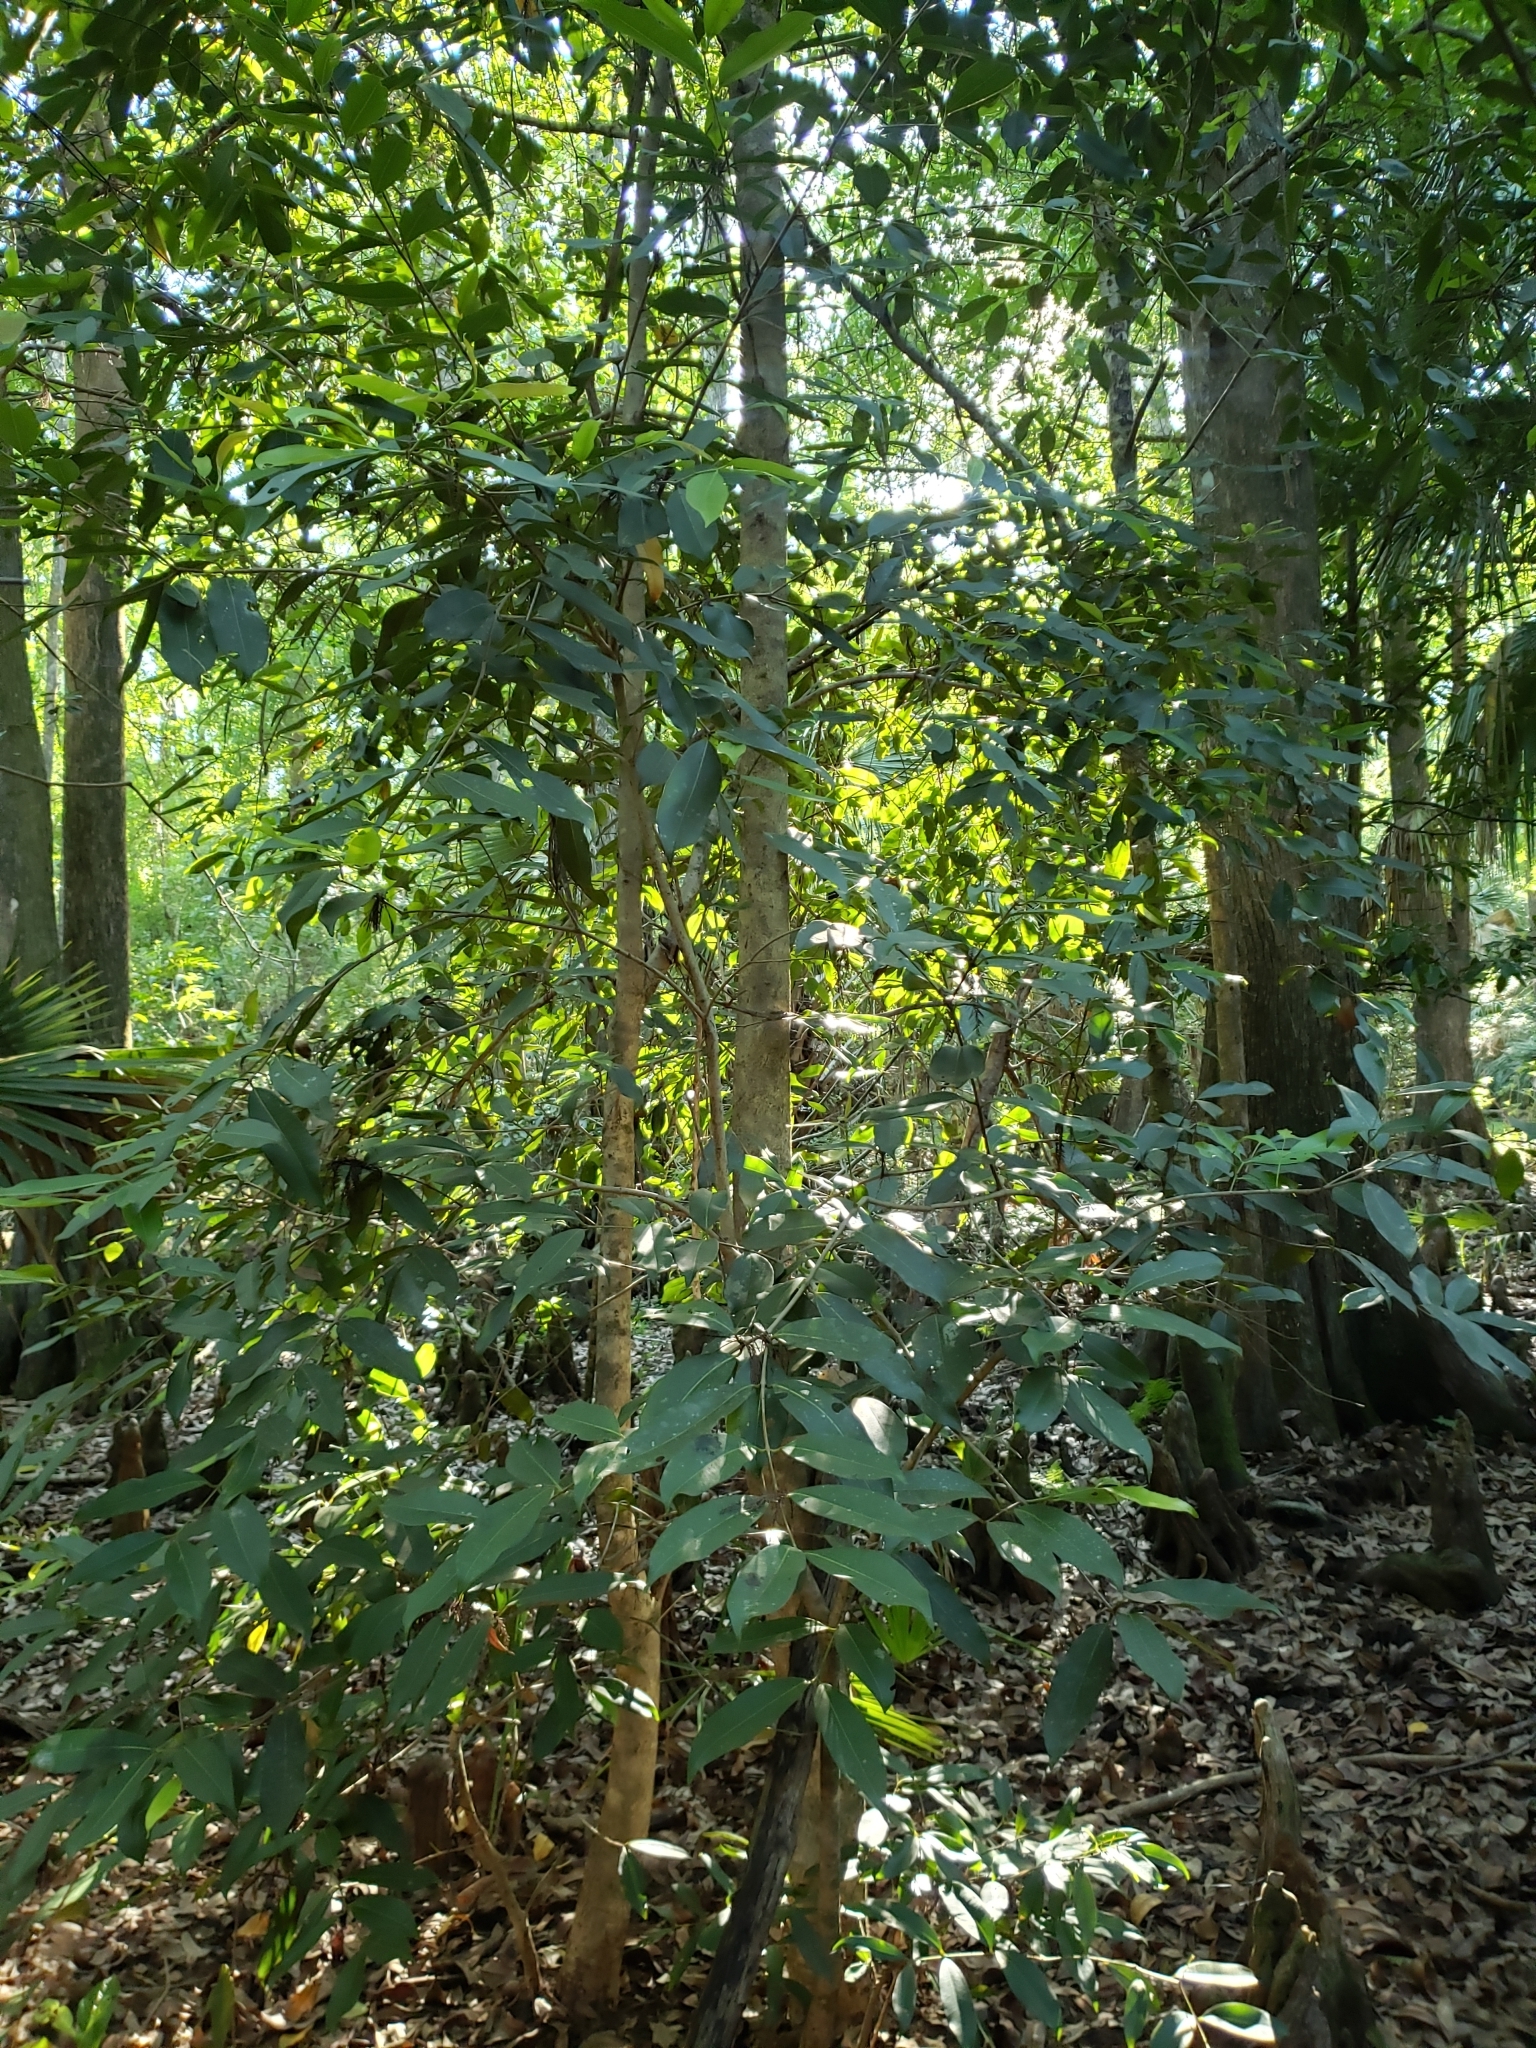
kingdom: Plantae
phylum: Tracheophyta
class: Magnoliopsida
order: Myrtales
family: Myrtaceae
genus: Syzygium
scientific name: Syzygium cumini
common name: Java plum
